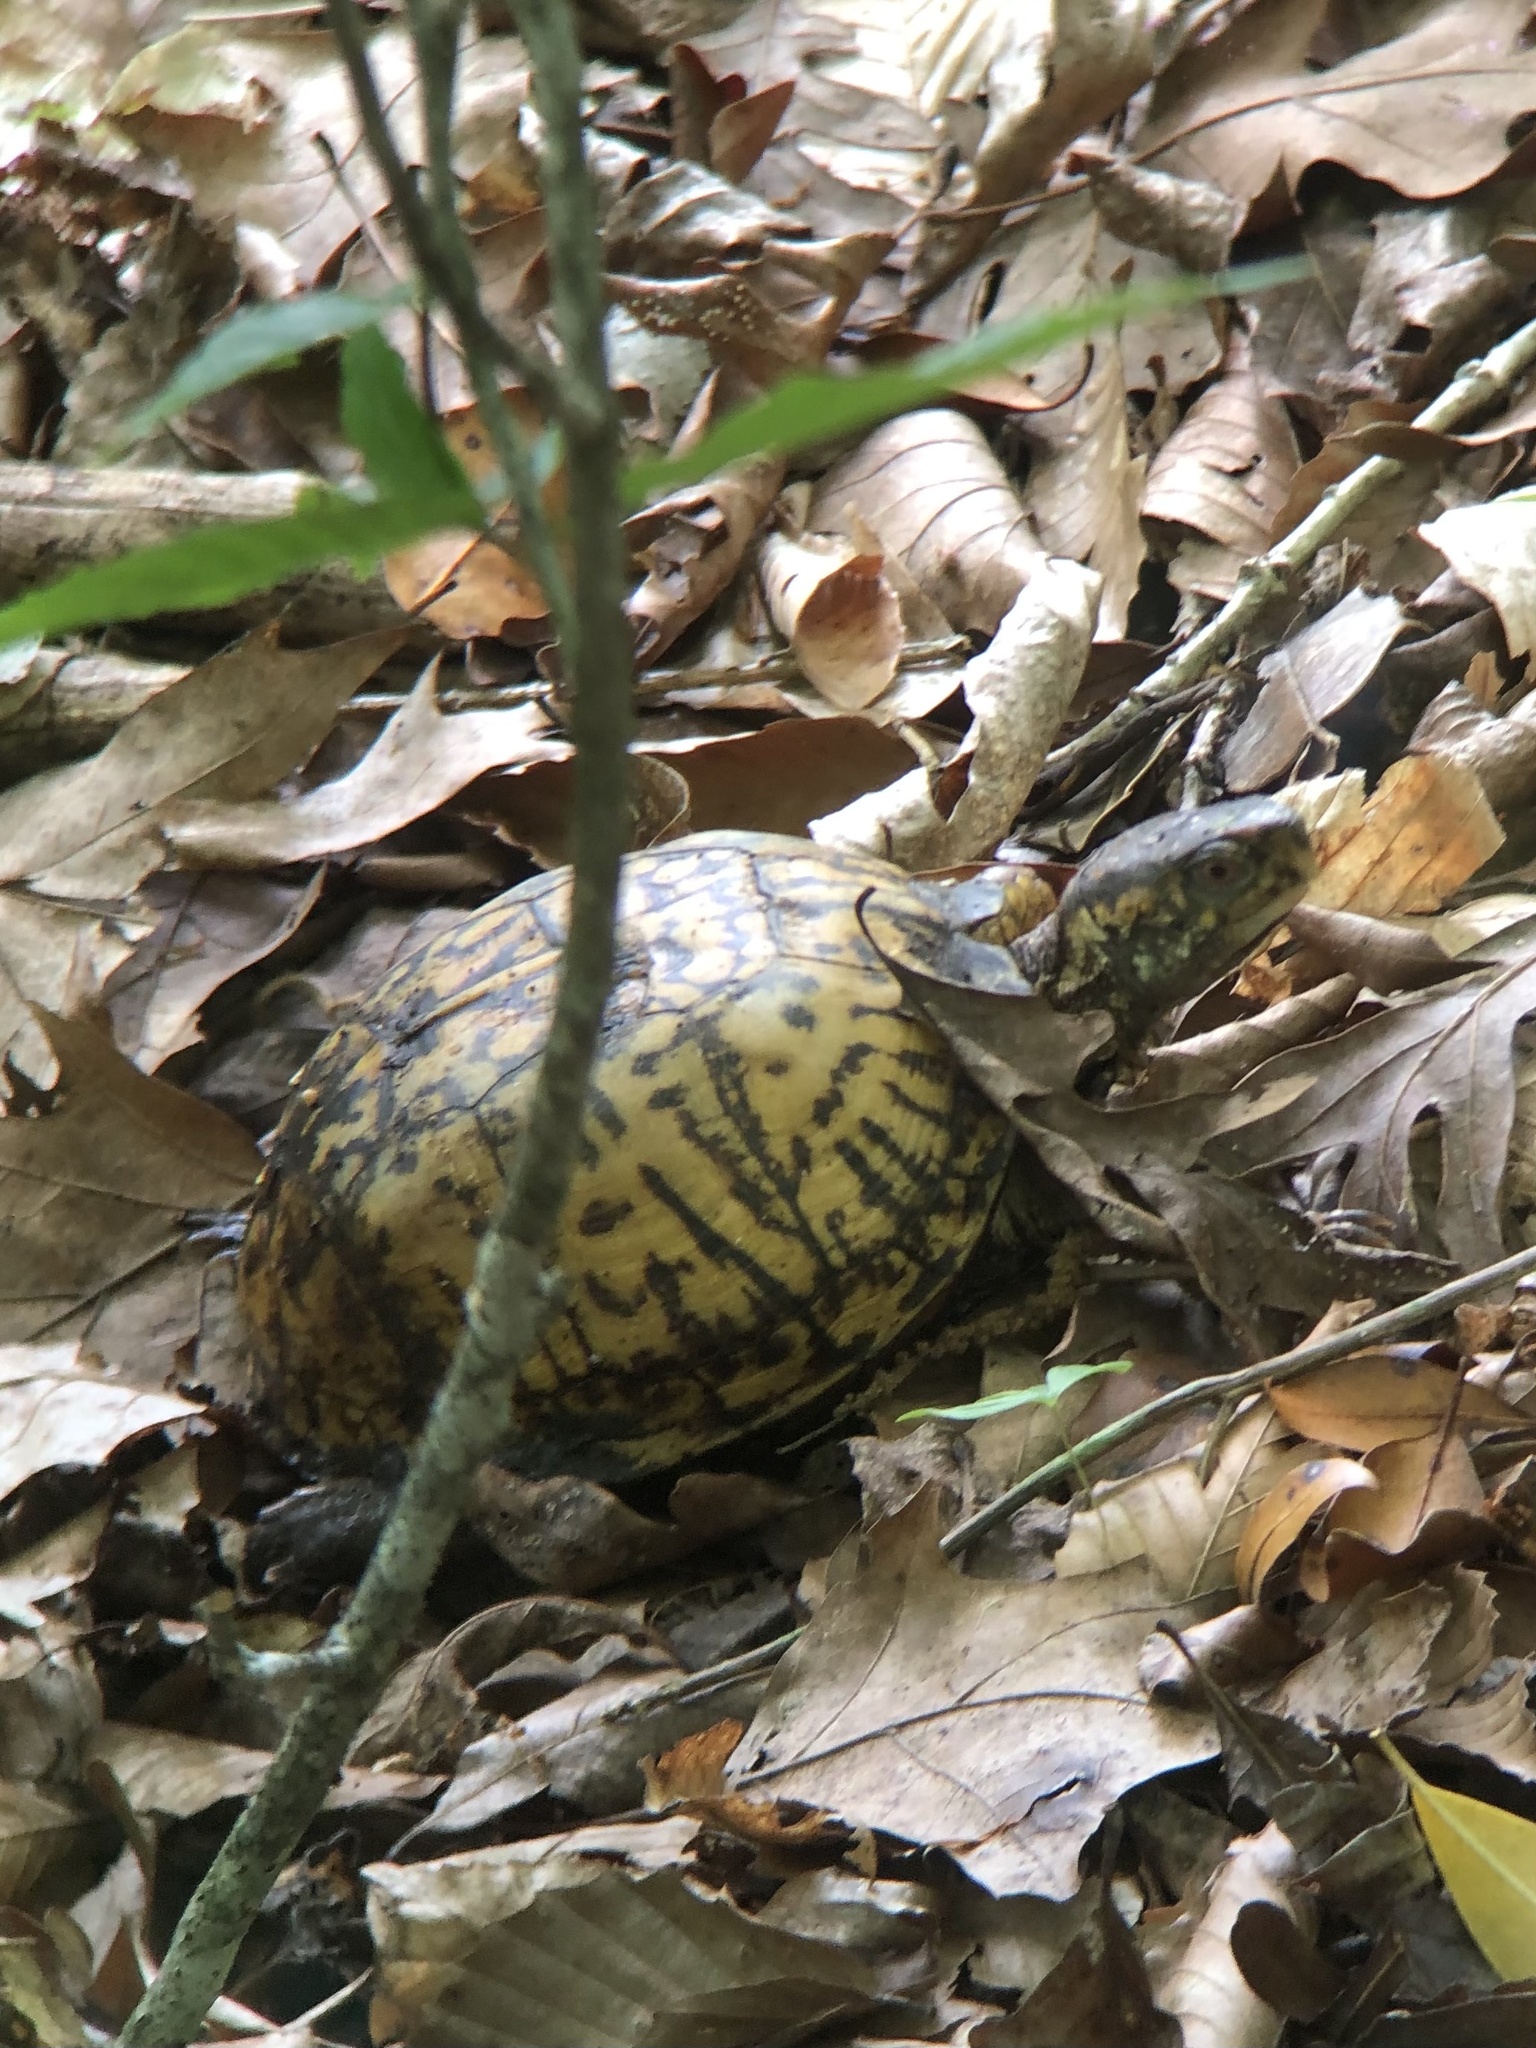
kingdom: Animalia
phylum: Chordata
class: Testudines
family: Emydidae
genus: Terrapene
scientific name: Terrapene carolina
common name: Common box turtle
